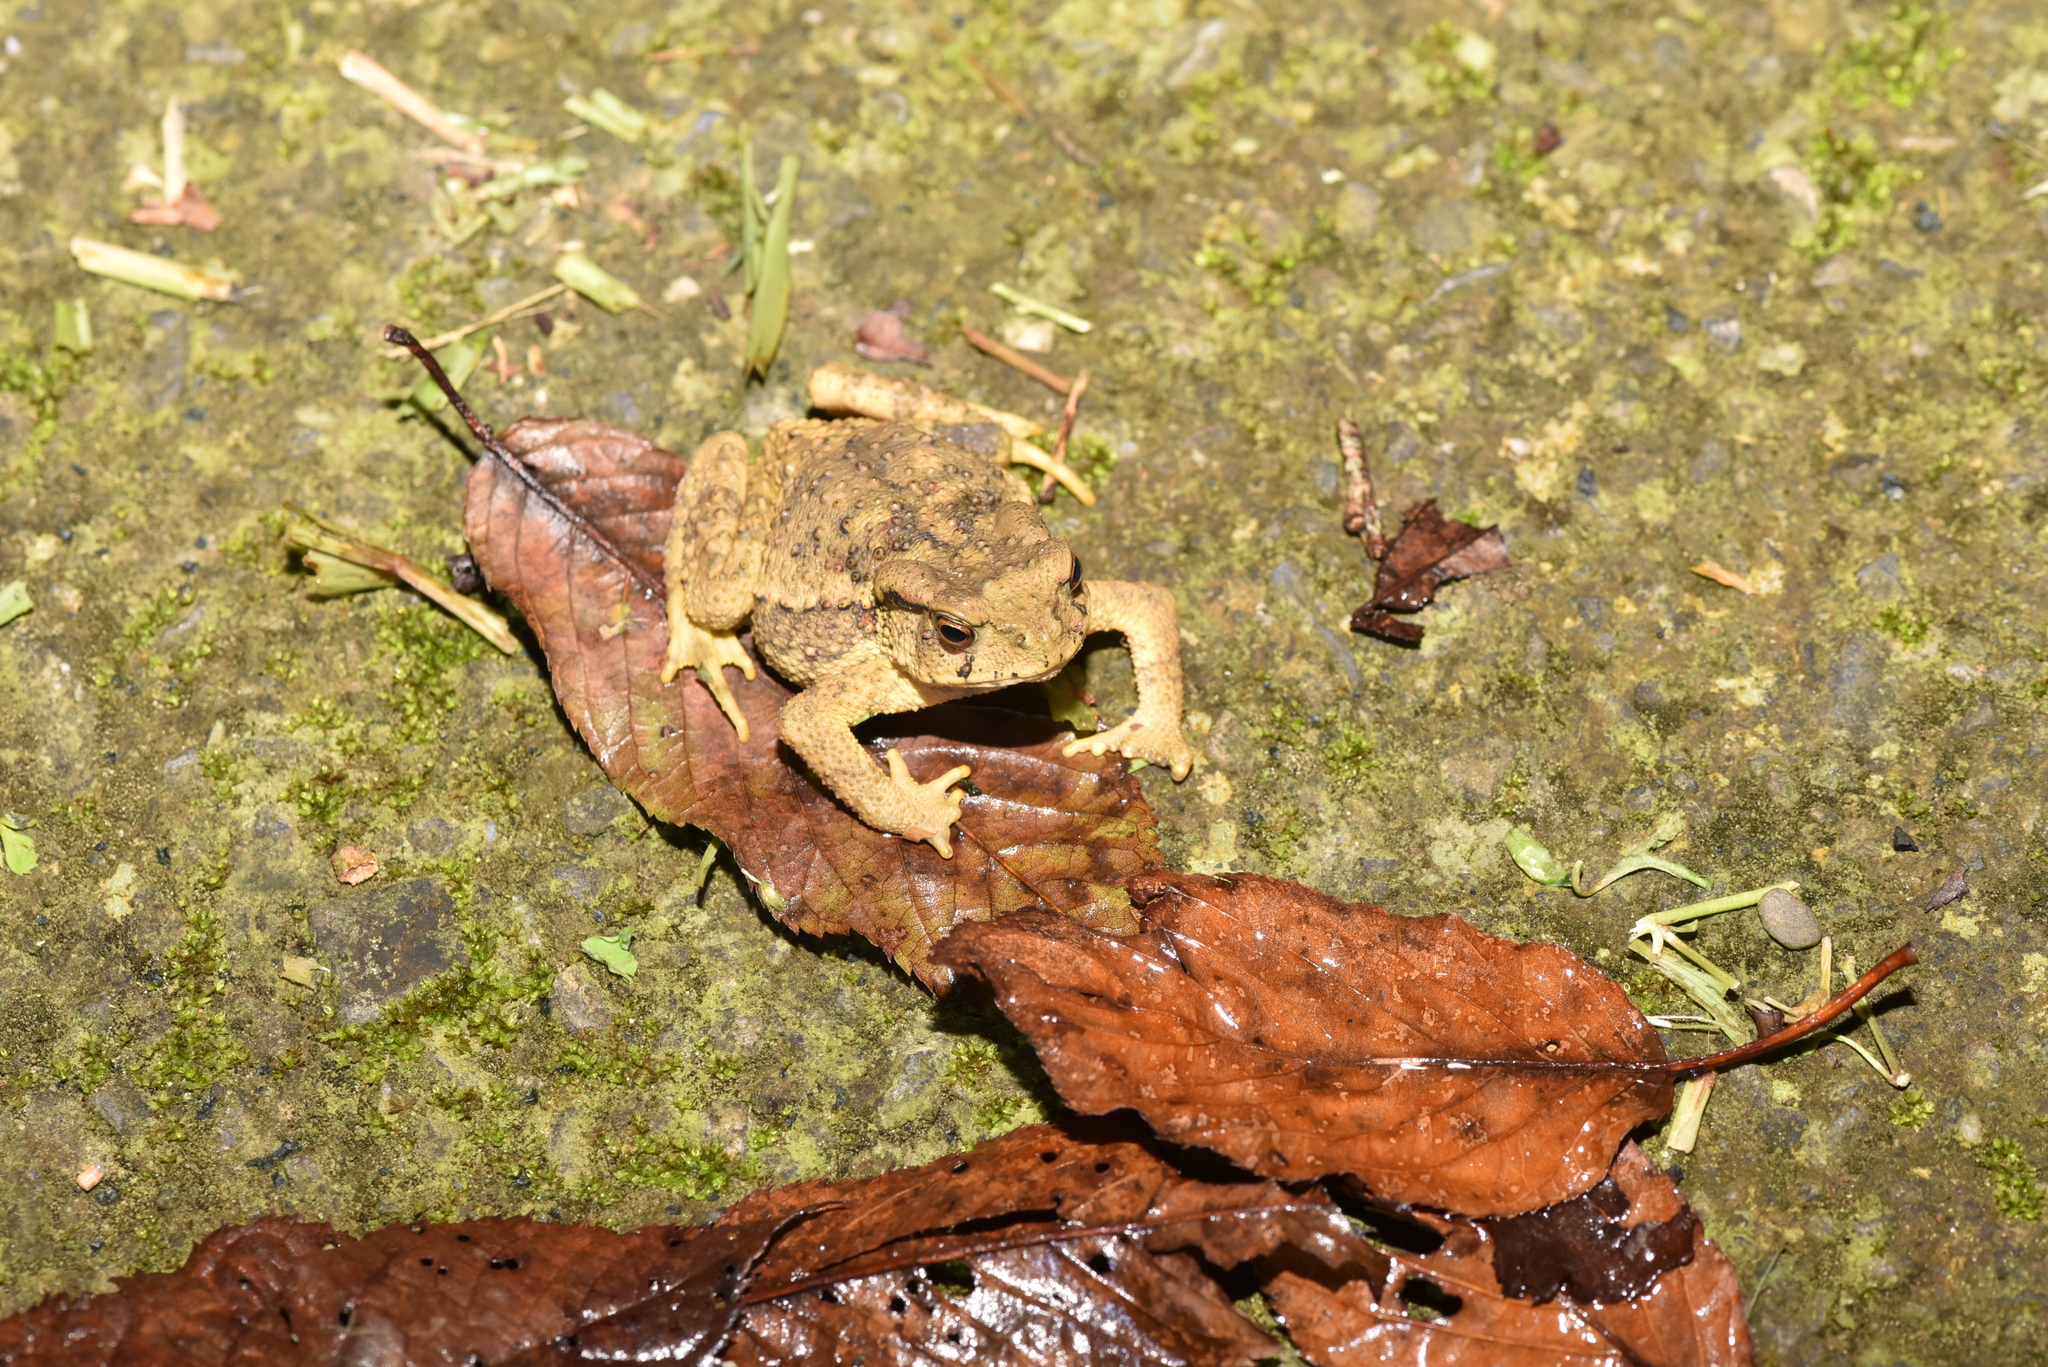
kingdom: Animalia
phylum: Chordata
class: Amphibia
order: Anura
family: Bufonidae
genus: Bufo
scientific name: Bufo bankorensis
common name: Bankor toad
